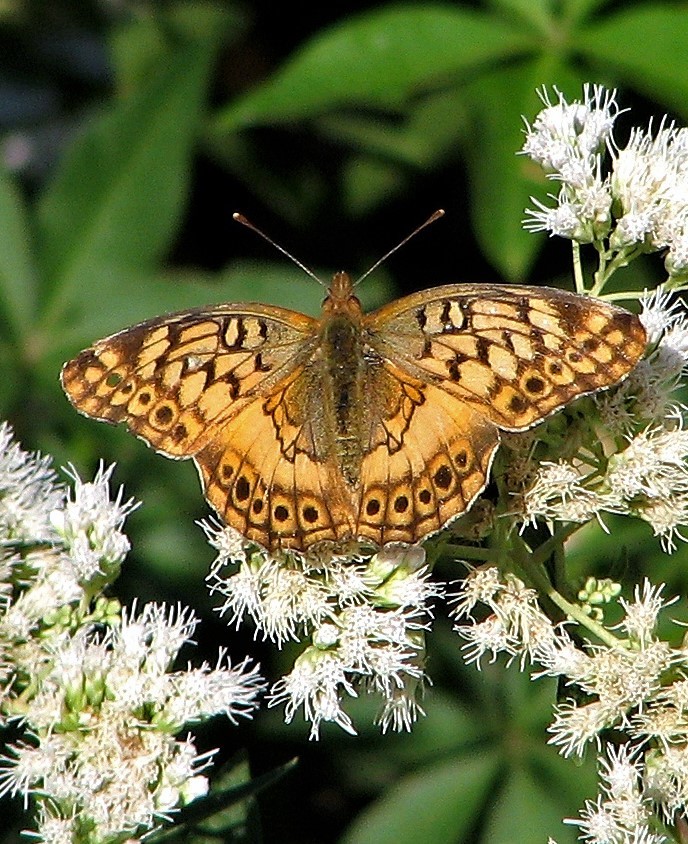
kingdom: Animalia
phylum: Arthropoda
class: Insecta
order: Lepidoptera
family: Nymphalidae
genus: Euptoieta
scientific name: Euptoieta hortensia
